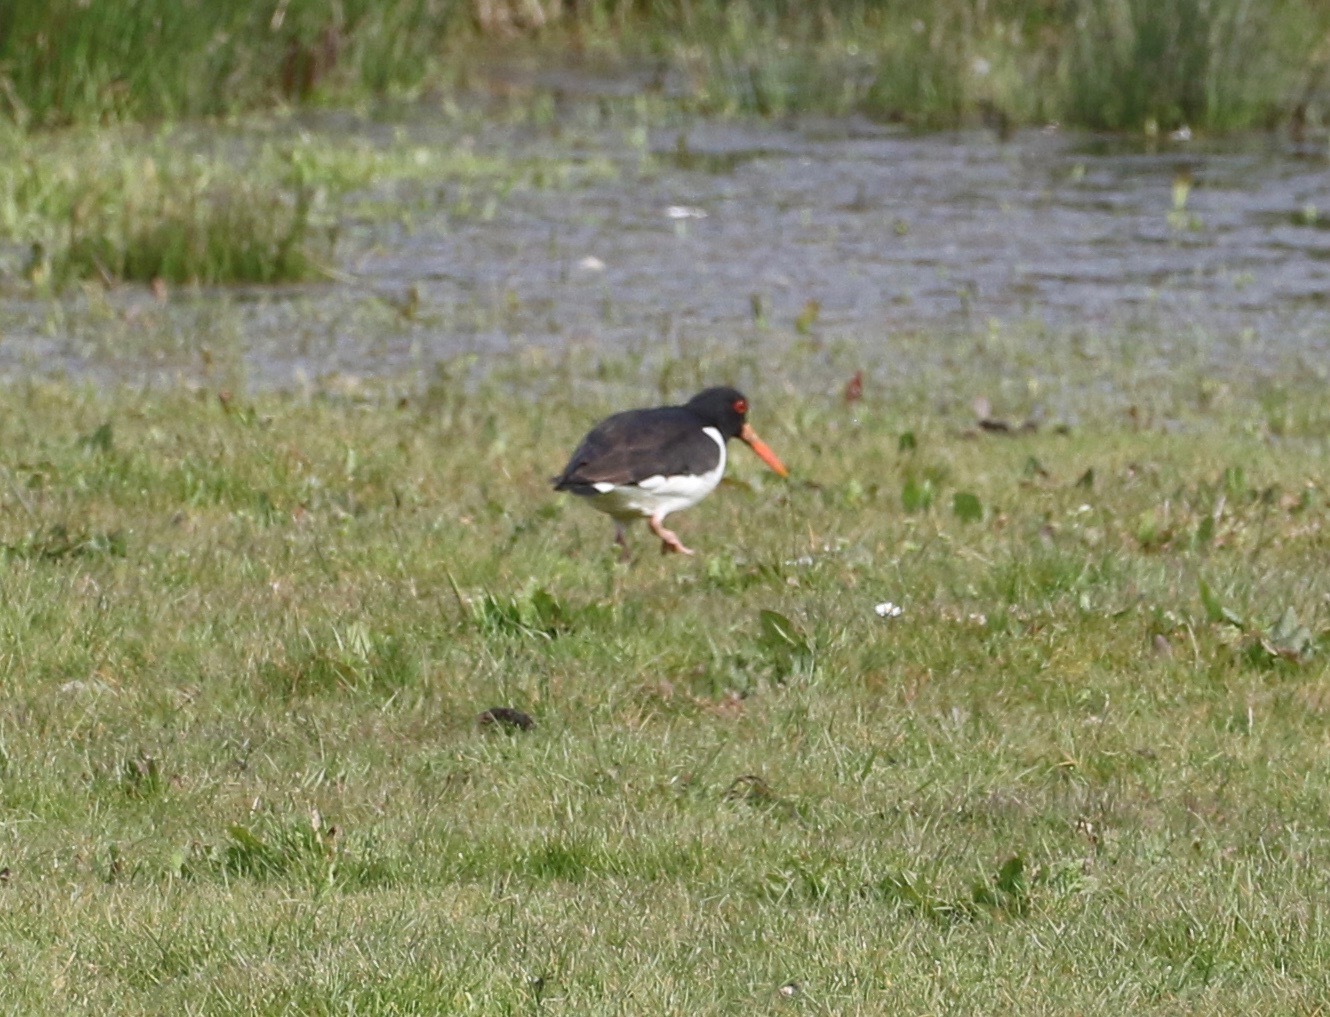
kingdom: Animalia
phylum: Chordata
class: Aves
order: Charadriiformes
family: Haematopodidae
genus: Haematopus
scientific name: Haematopus ostralegus
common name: Eurasian oystercatcher
